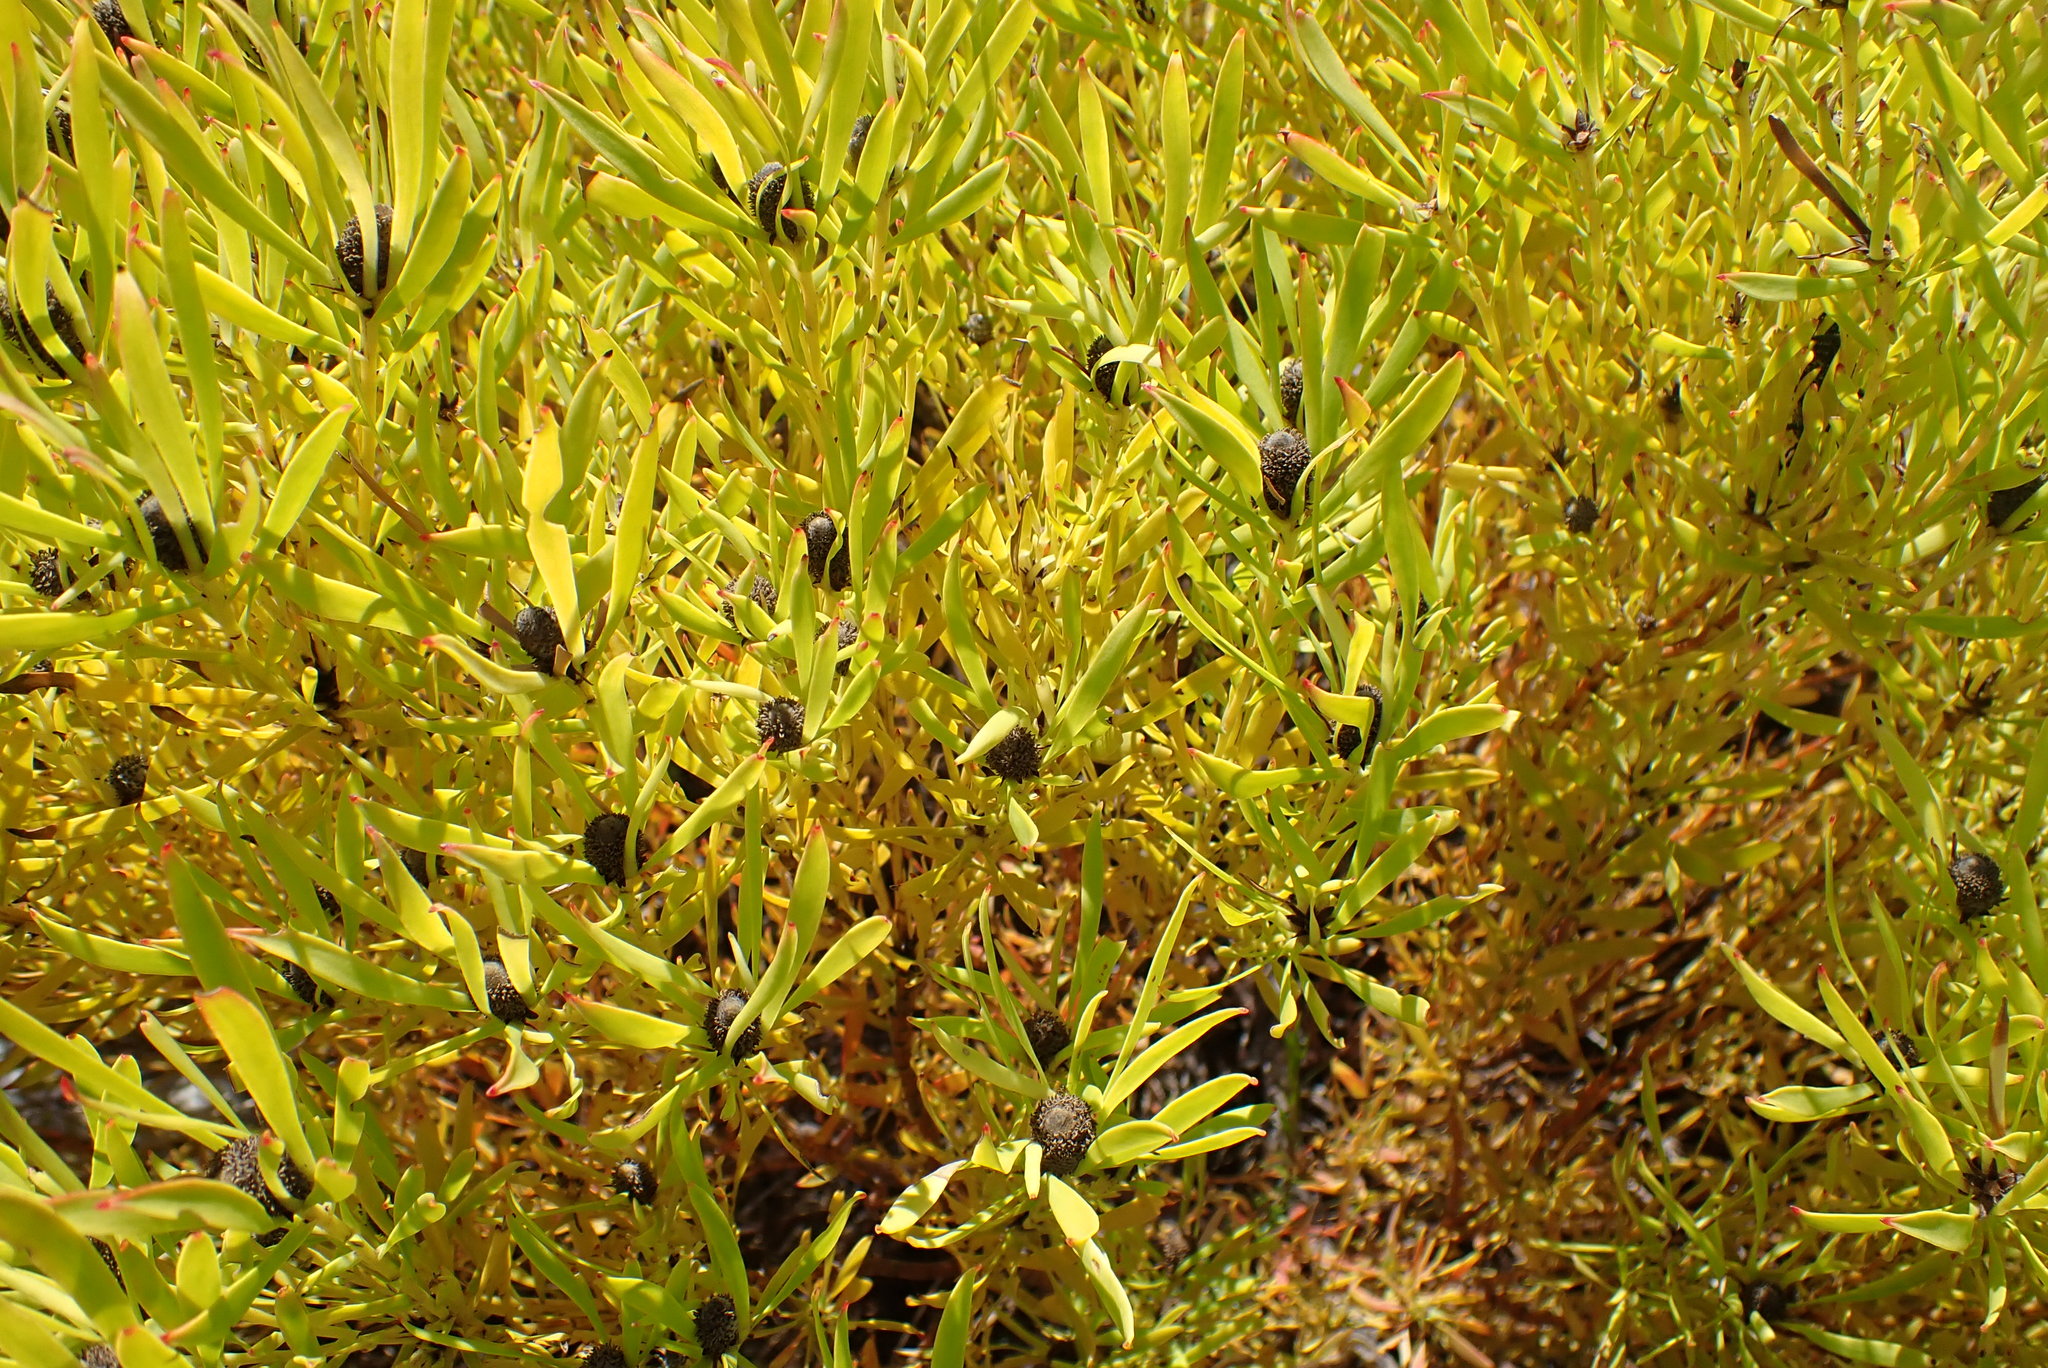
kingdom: Plantae
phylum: Tracheophyta
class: Magnoliopsida
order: Proteales
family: Proteaceae
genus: Leucadendron
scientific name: Leucadendron salignum
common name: Common sunshine conebush
